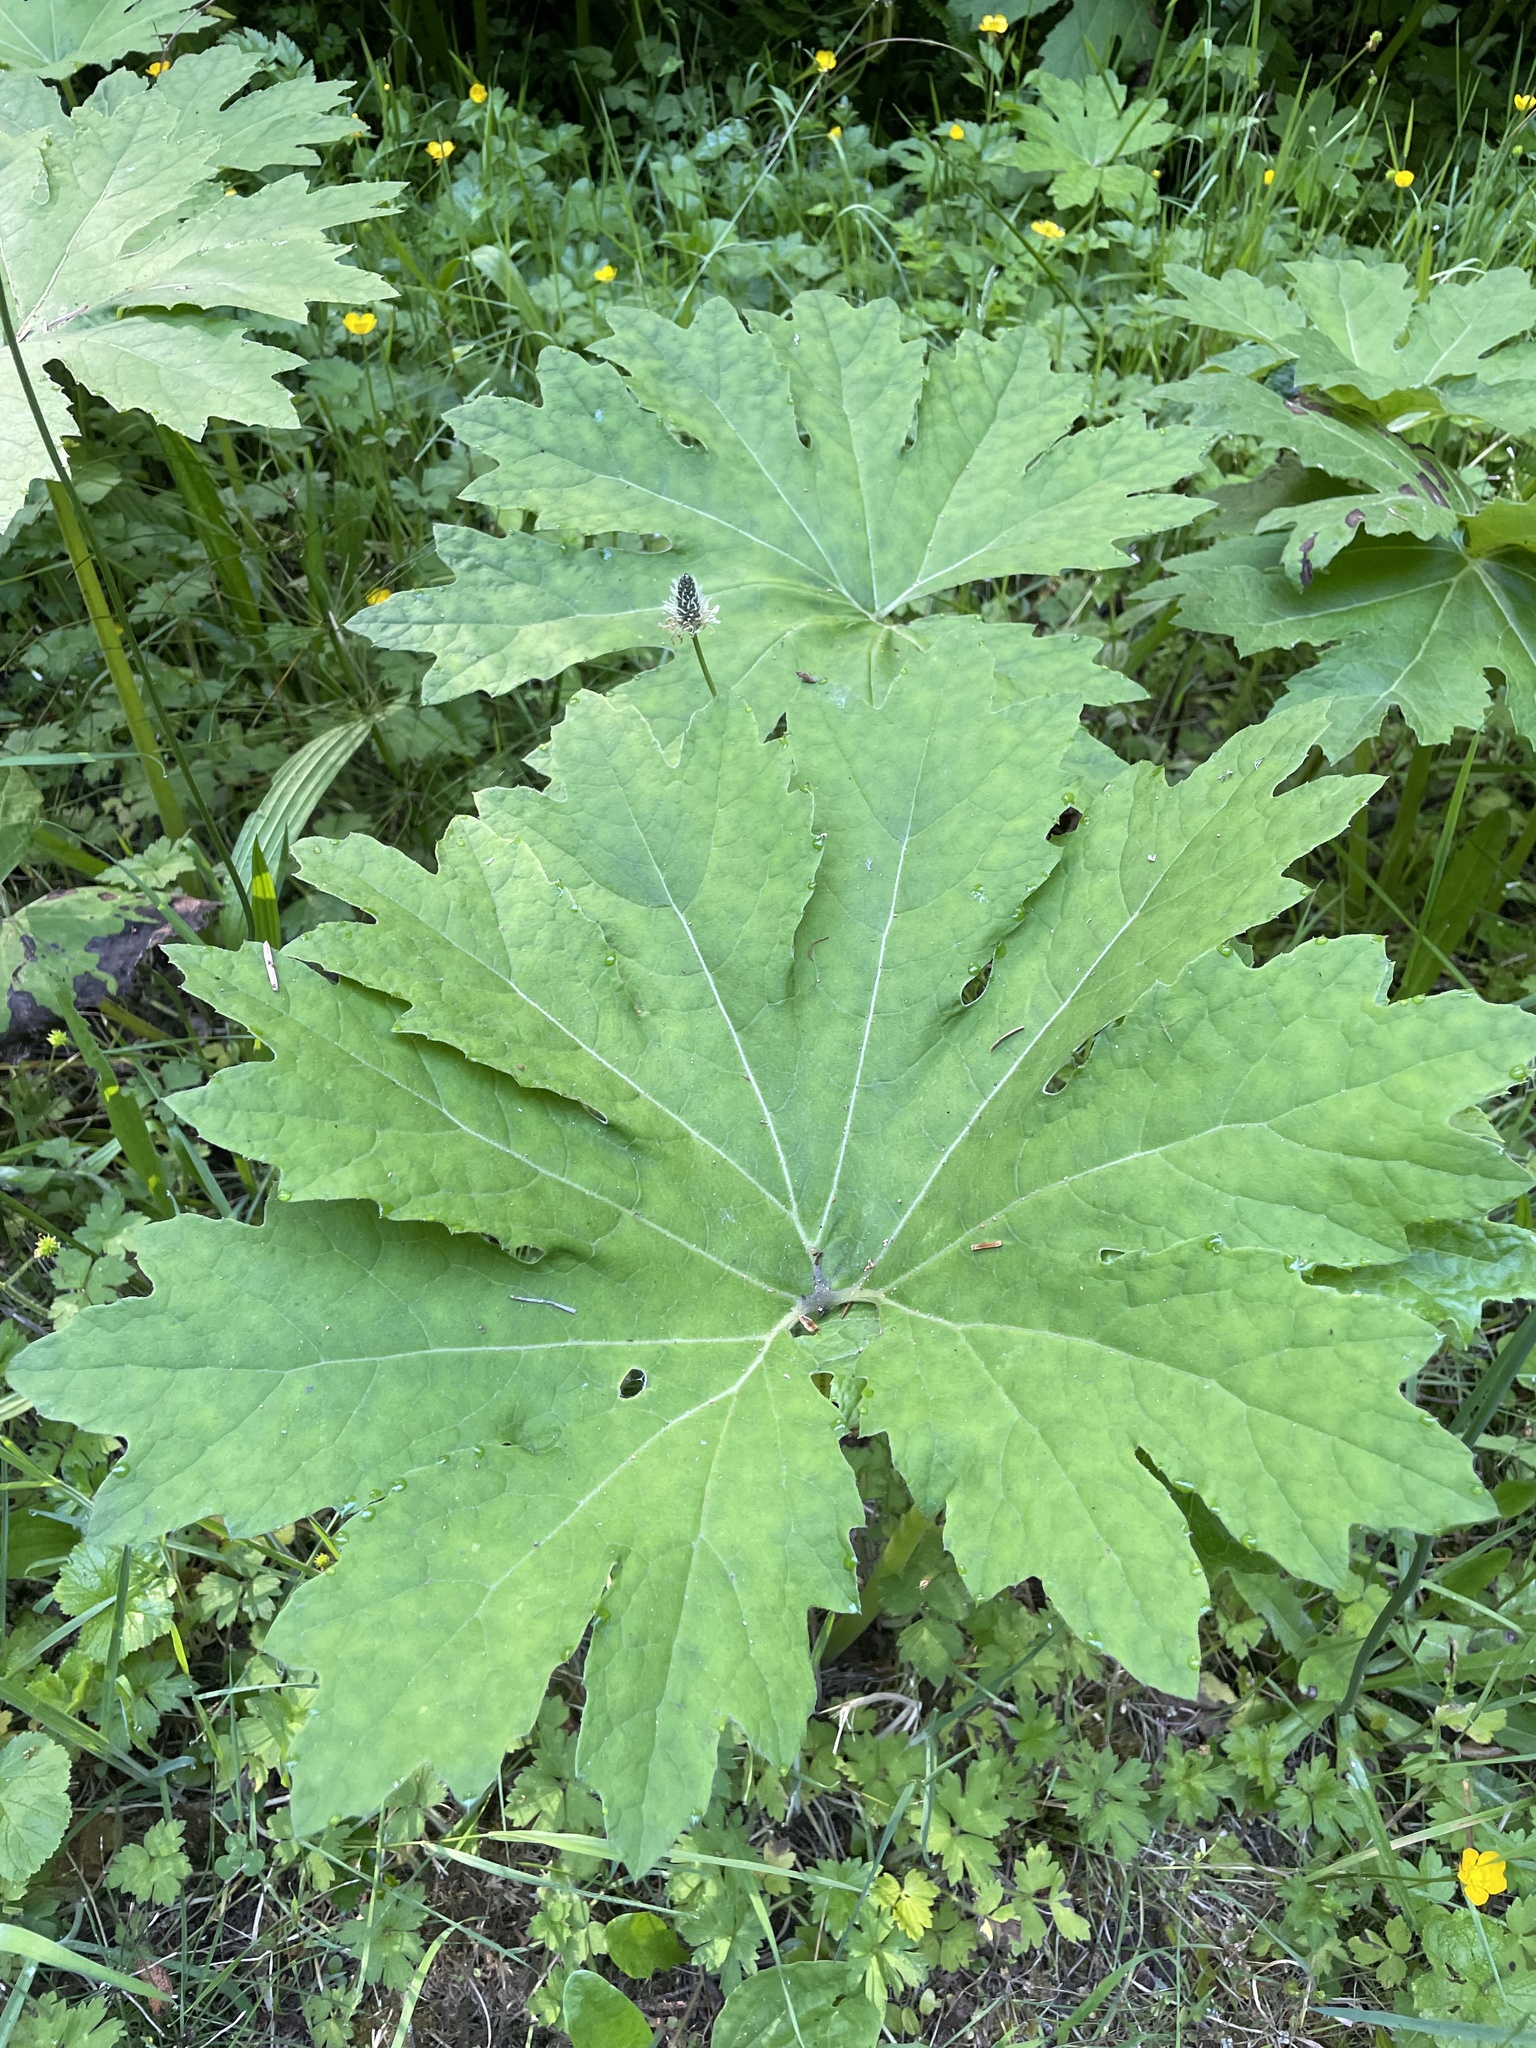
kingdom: Plantae
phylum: Tracheophyta
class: Magnoliopsida
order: Asterales
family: Asteraceae
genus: Petasites
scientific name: Petasites frigidus
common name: Arctic butterbur
